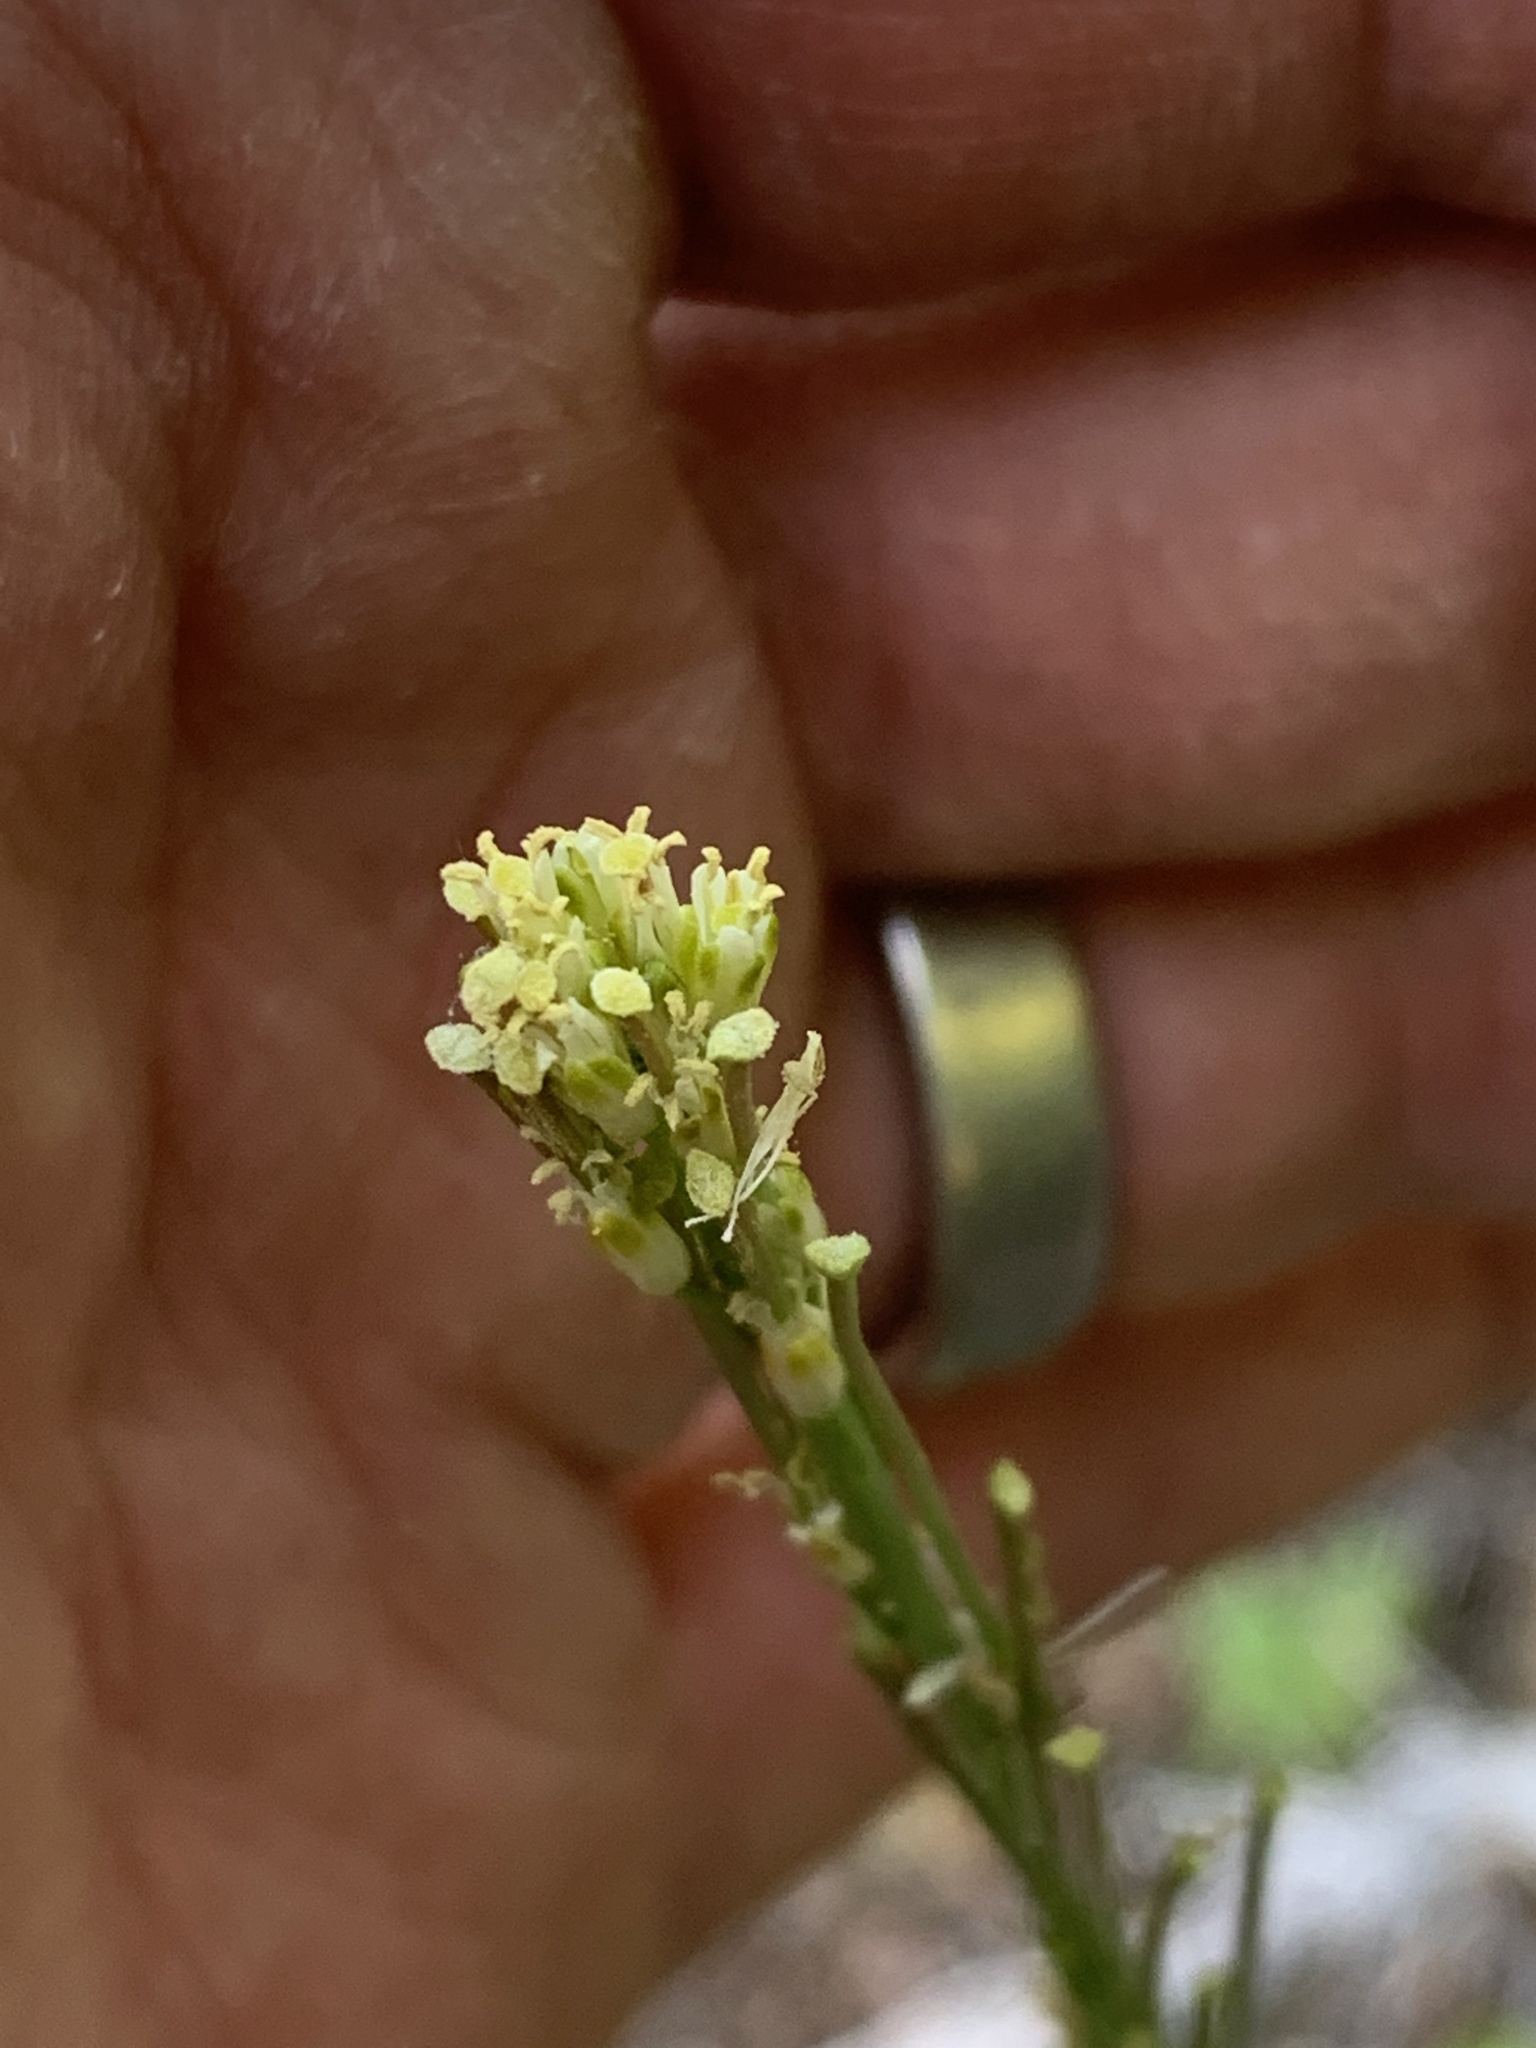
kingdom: Plantae
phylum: Tracheophyta
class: Magnoliopsida
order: Brassicales
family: Brassicaceae
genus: Turritis
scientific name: Turritis glabra
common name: Tower rockcress
